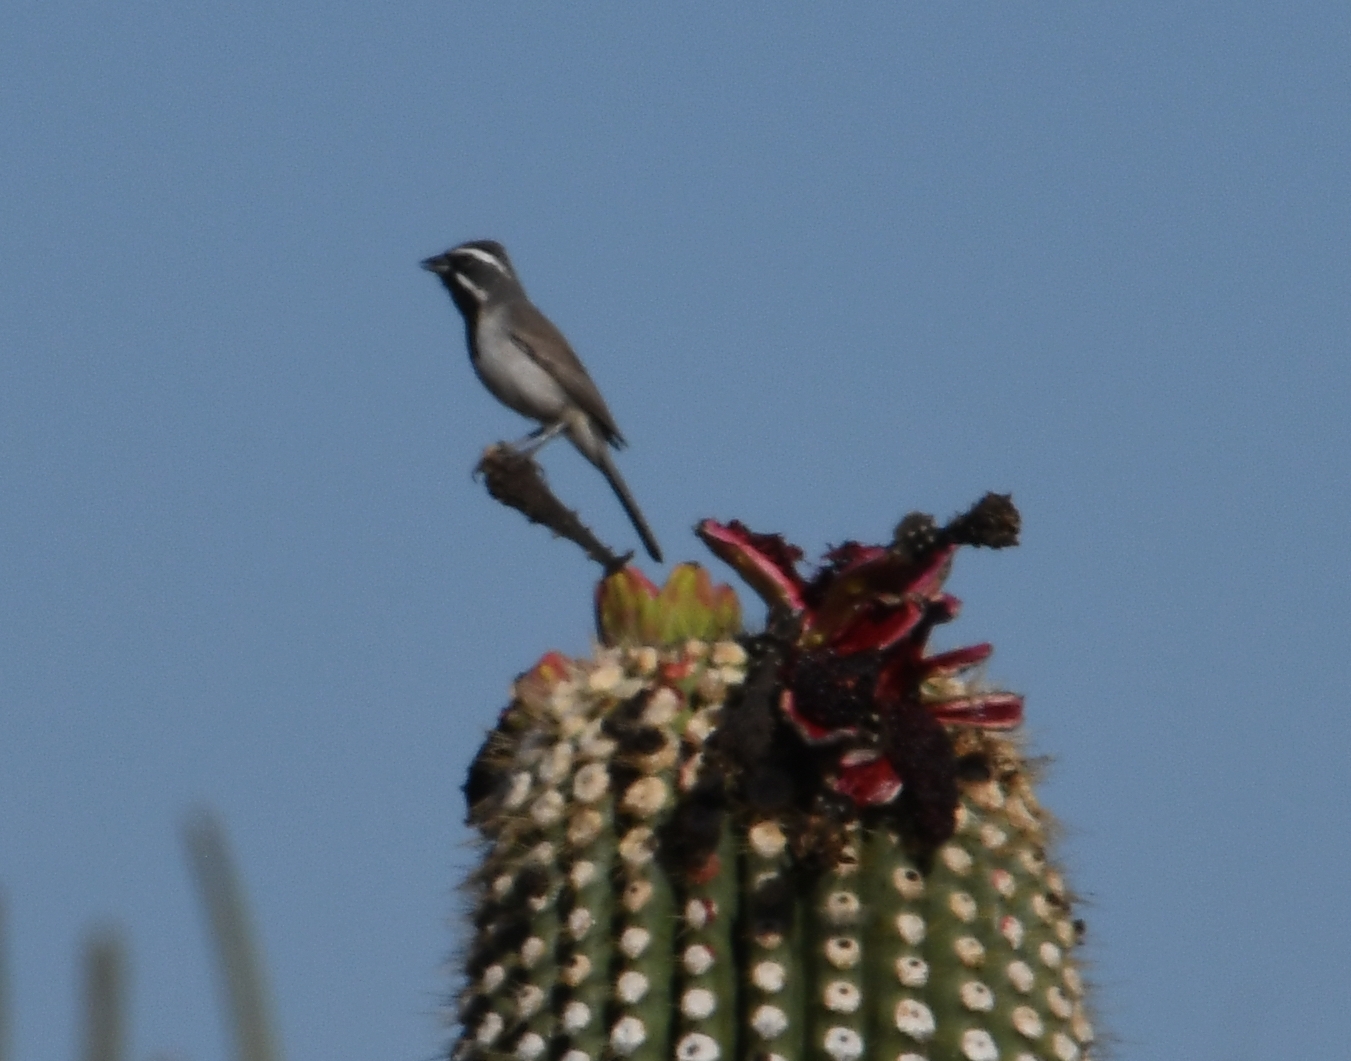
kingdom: Animalia
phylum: Chordata
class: Aves
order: Passeriformes
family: Passerellidae
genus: Amphispiza
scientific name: Amphispiza bilineata
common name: Black-throated sparrow
